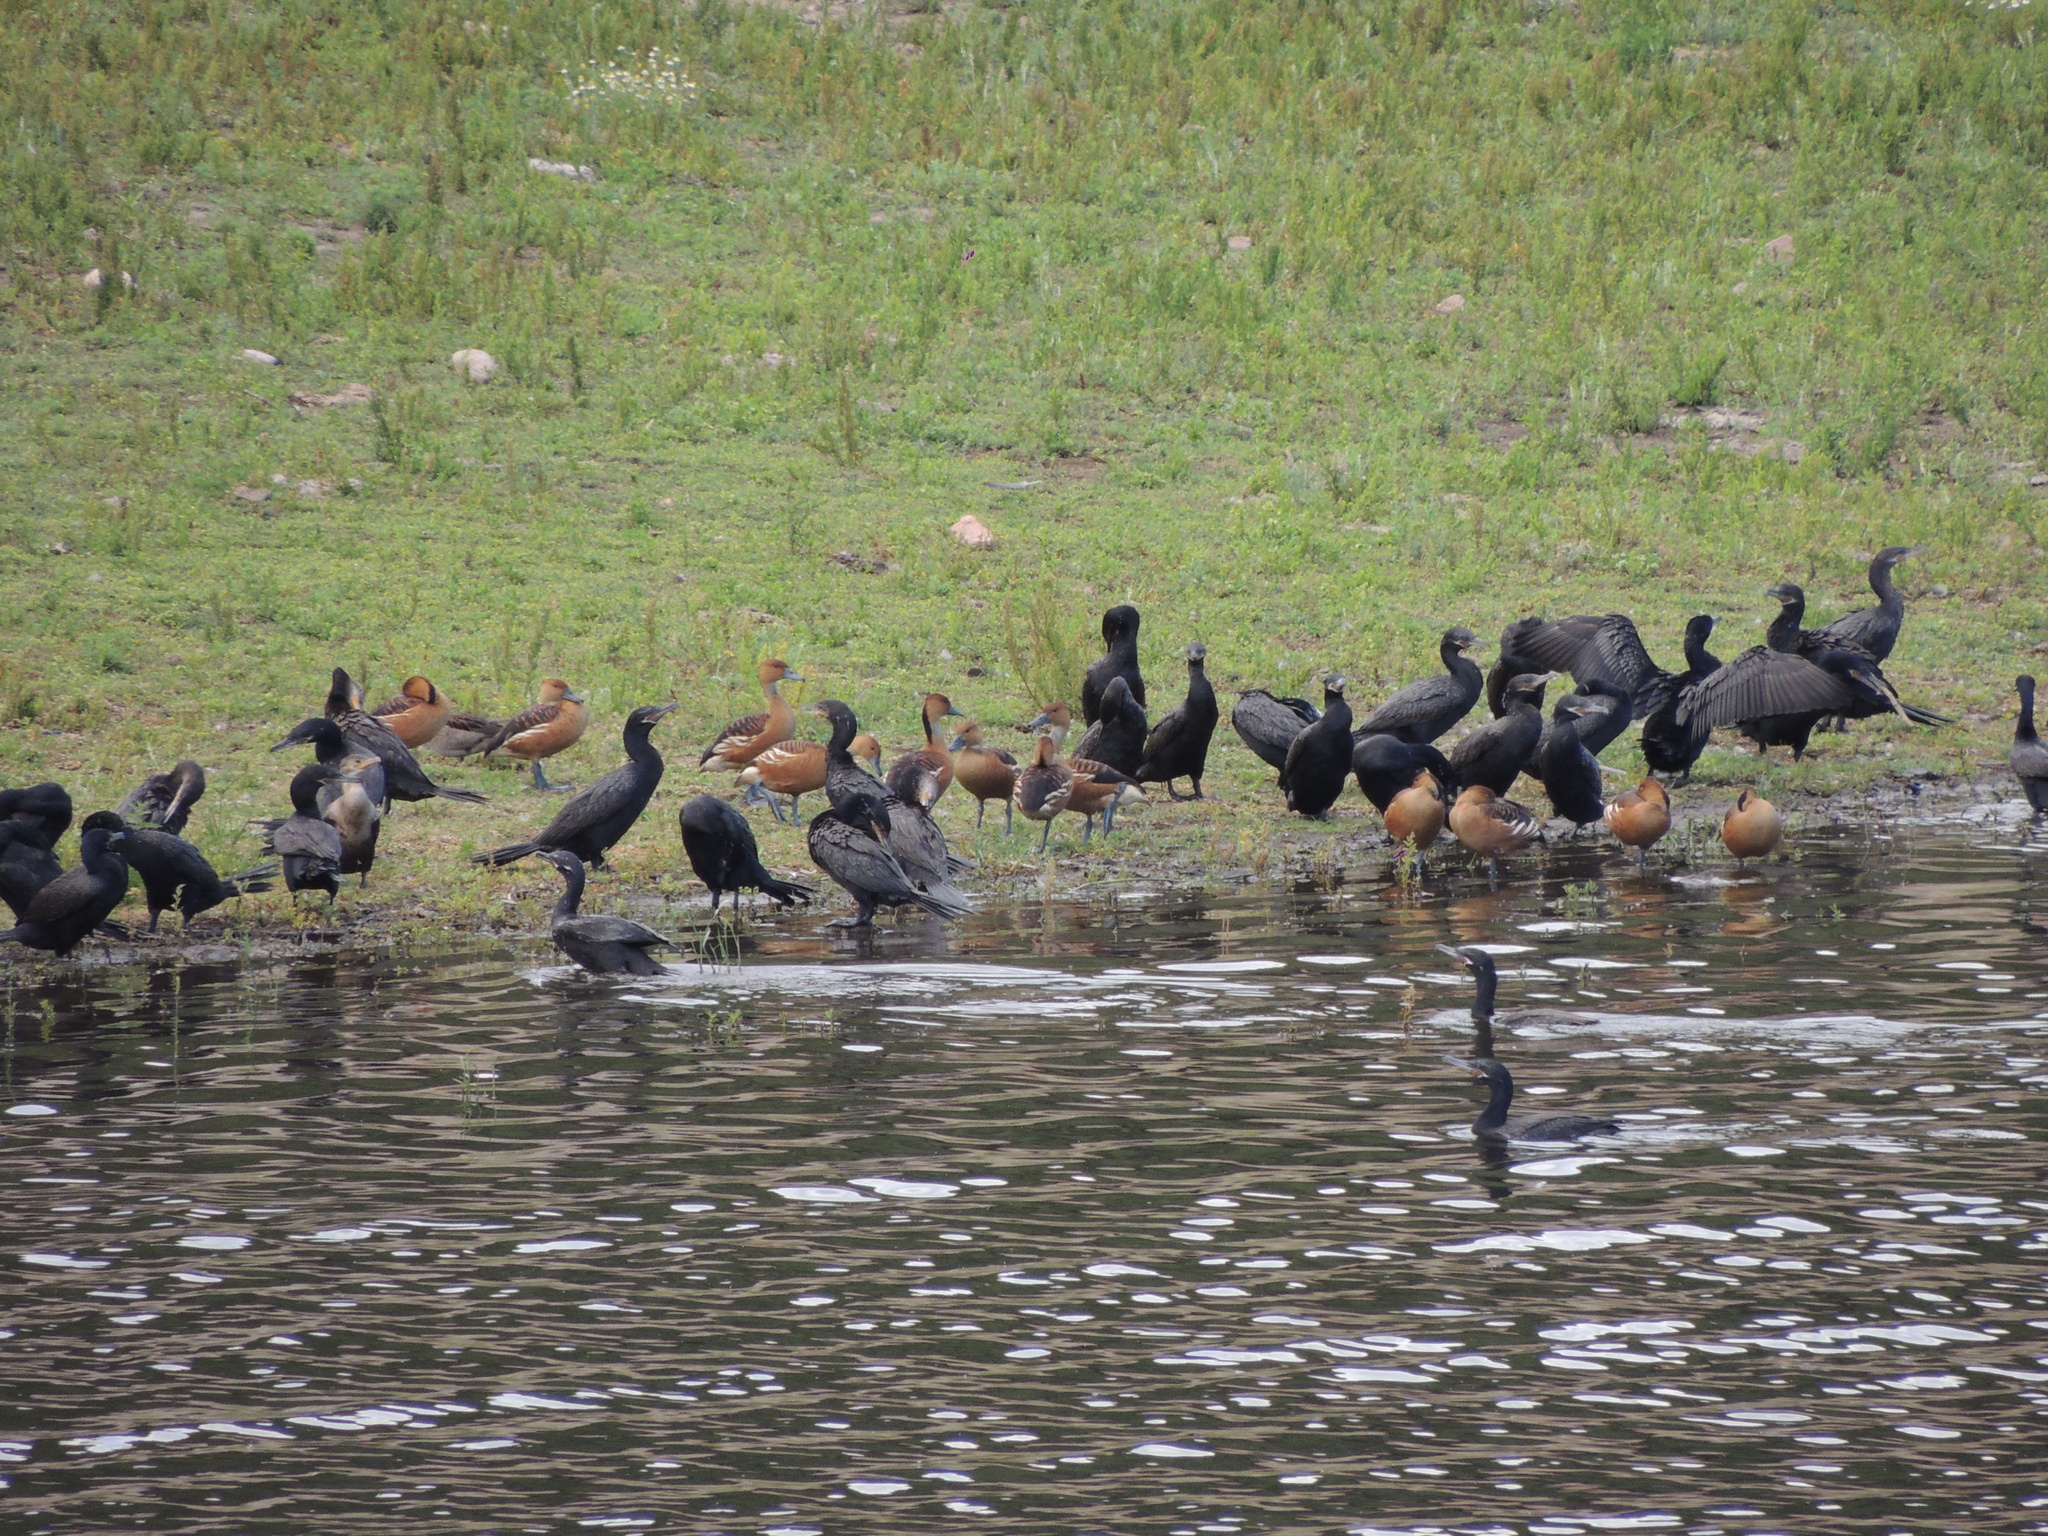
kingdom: Animalia
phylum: Chordata
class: Aves
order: Anseriformes
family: Anatidae
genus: Dendrocygna
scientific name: Dendrocygna bicolor
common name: Fulvous whistling duck
